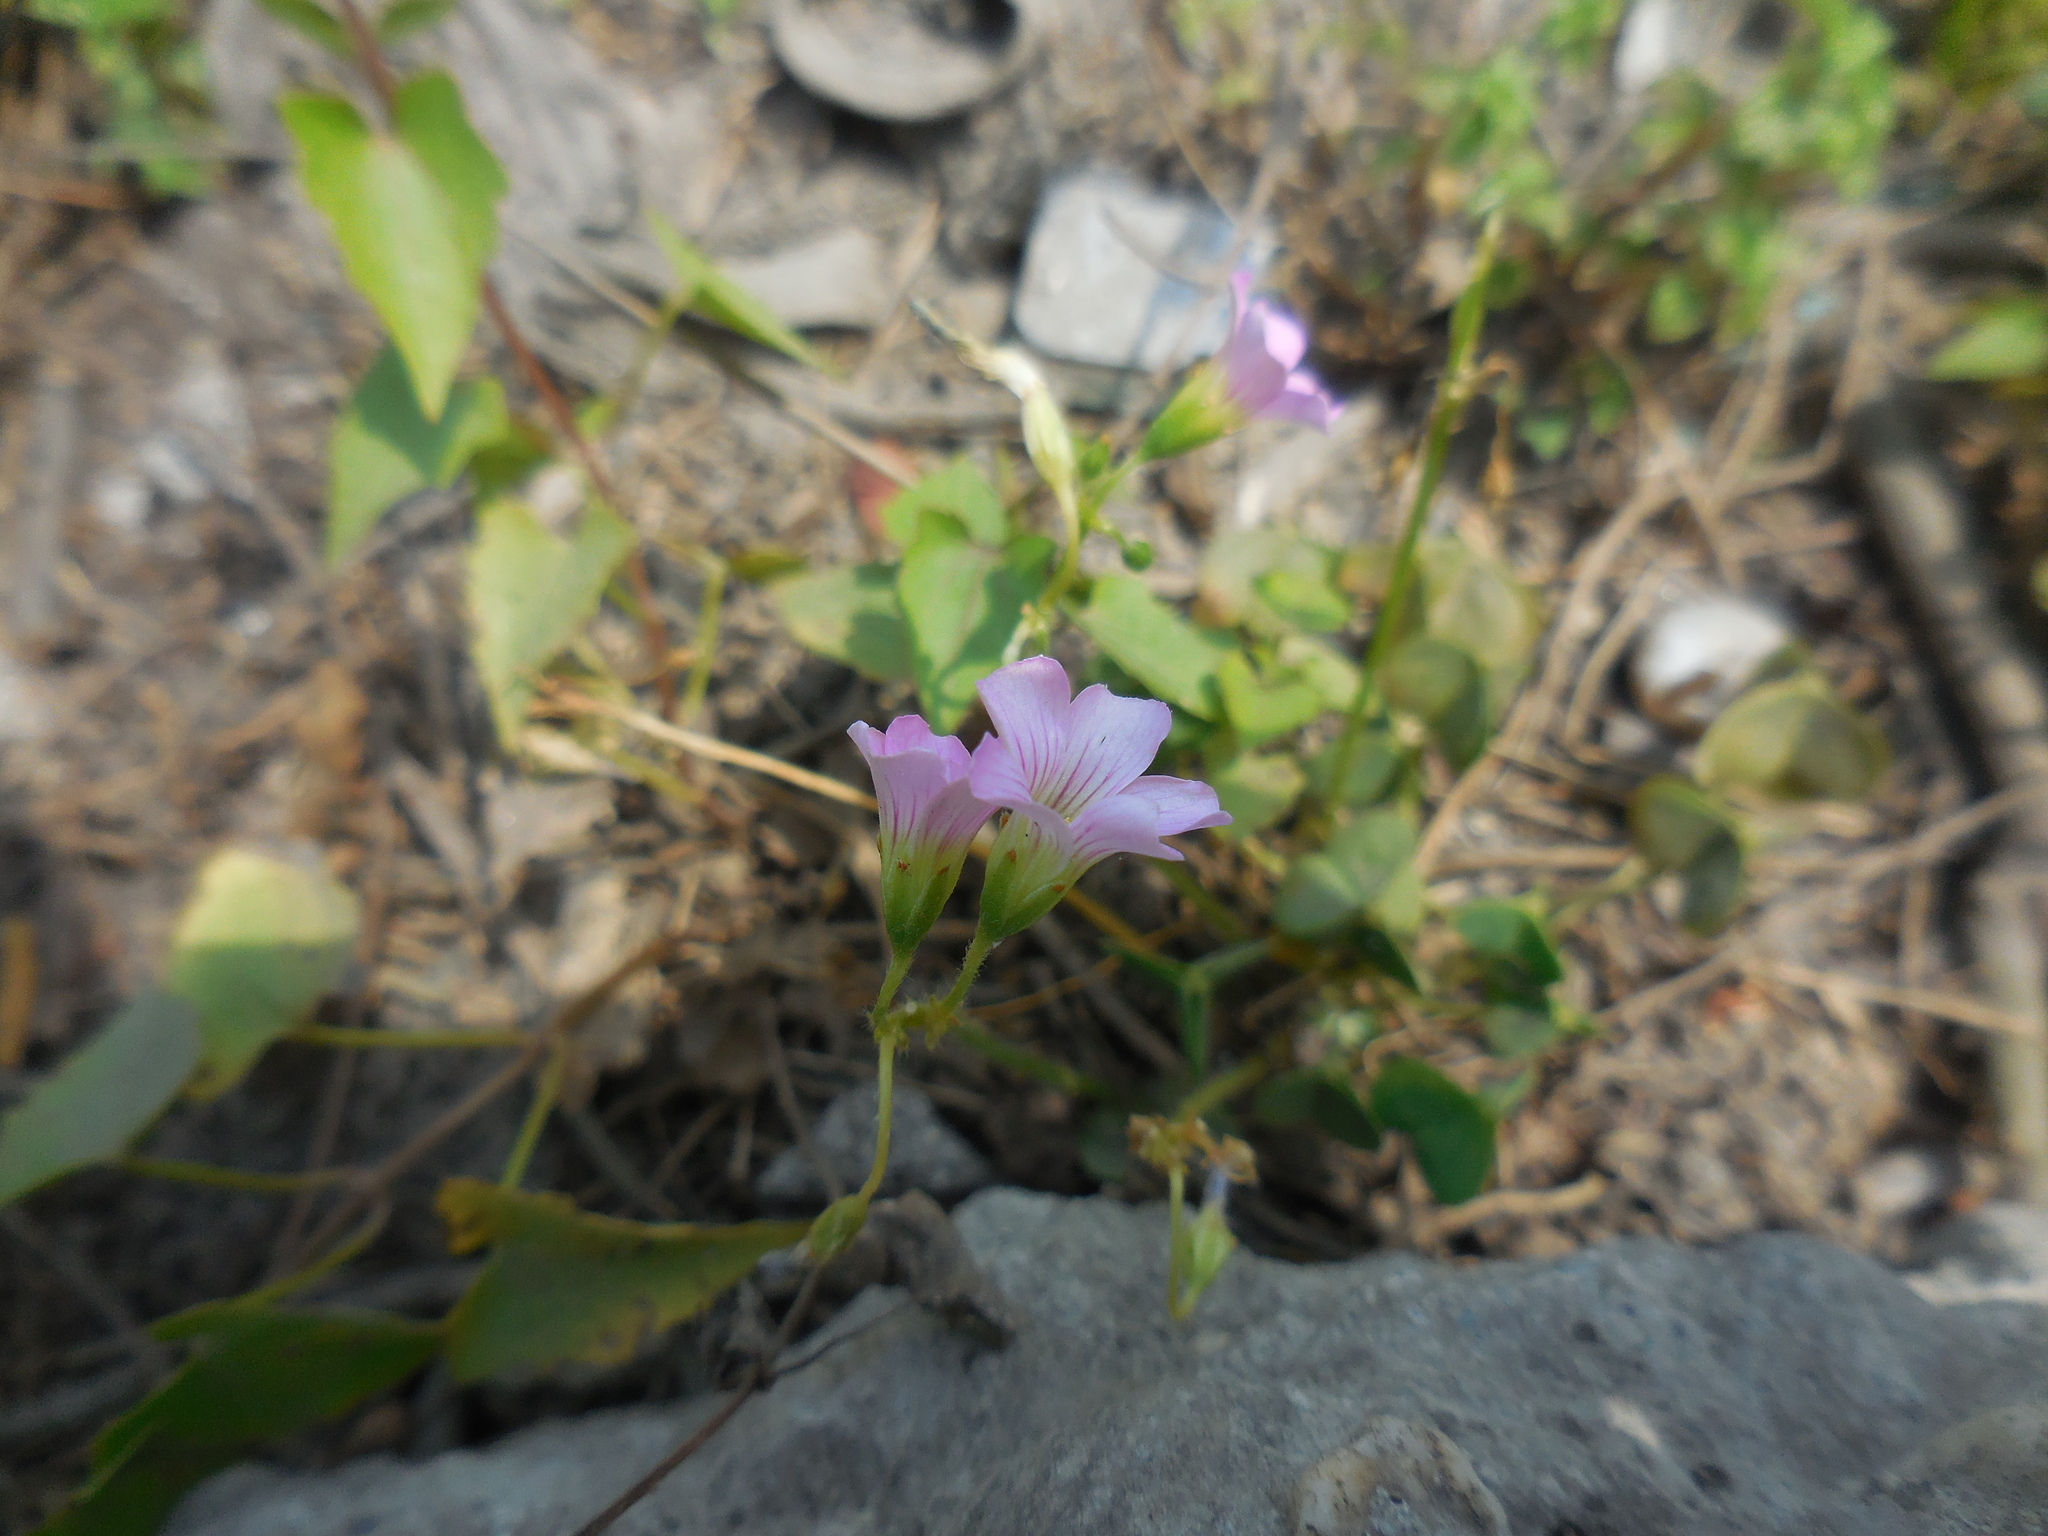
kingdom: Plantae
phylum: Tracheophyta
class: Magnoliopsida
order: Oxalidales
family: Oxalidaceae
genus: Oxalis
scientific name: Oxalis debilis
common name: Large-flowered pink-sorrel
